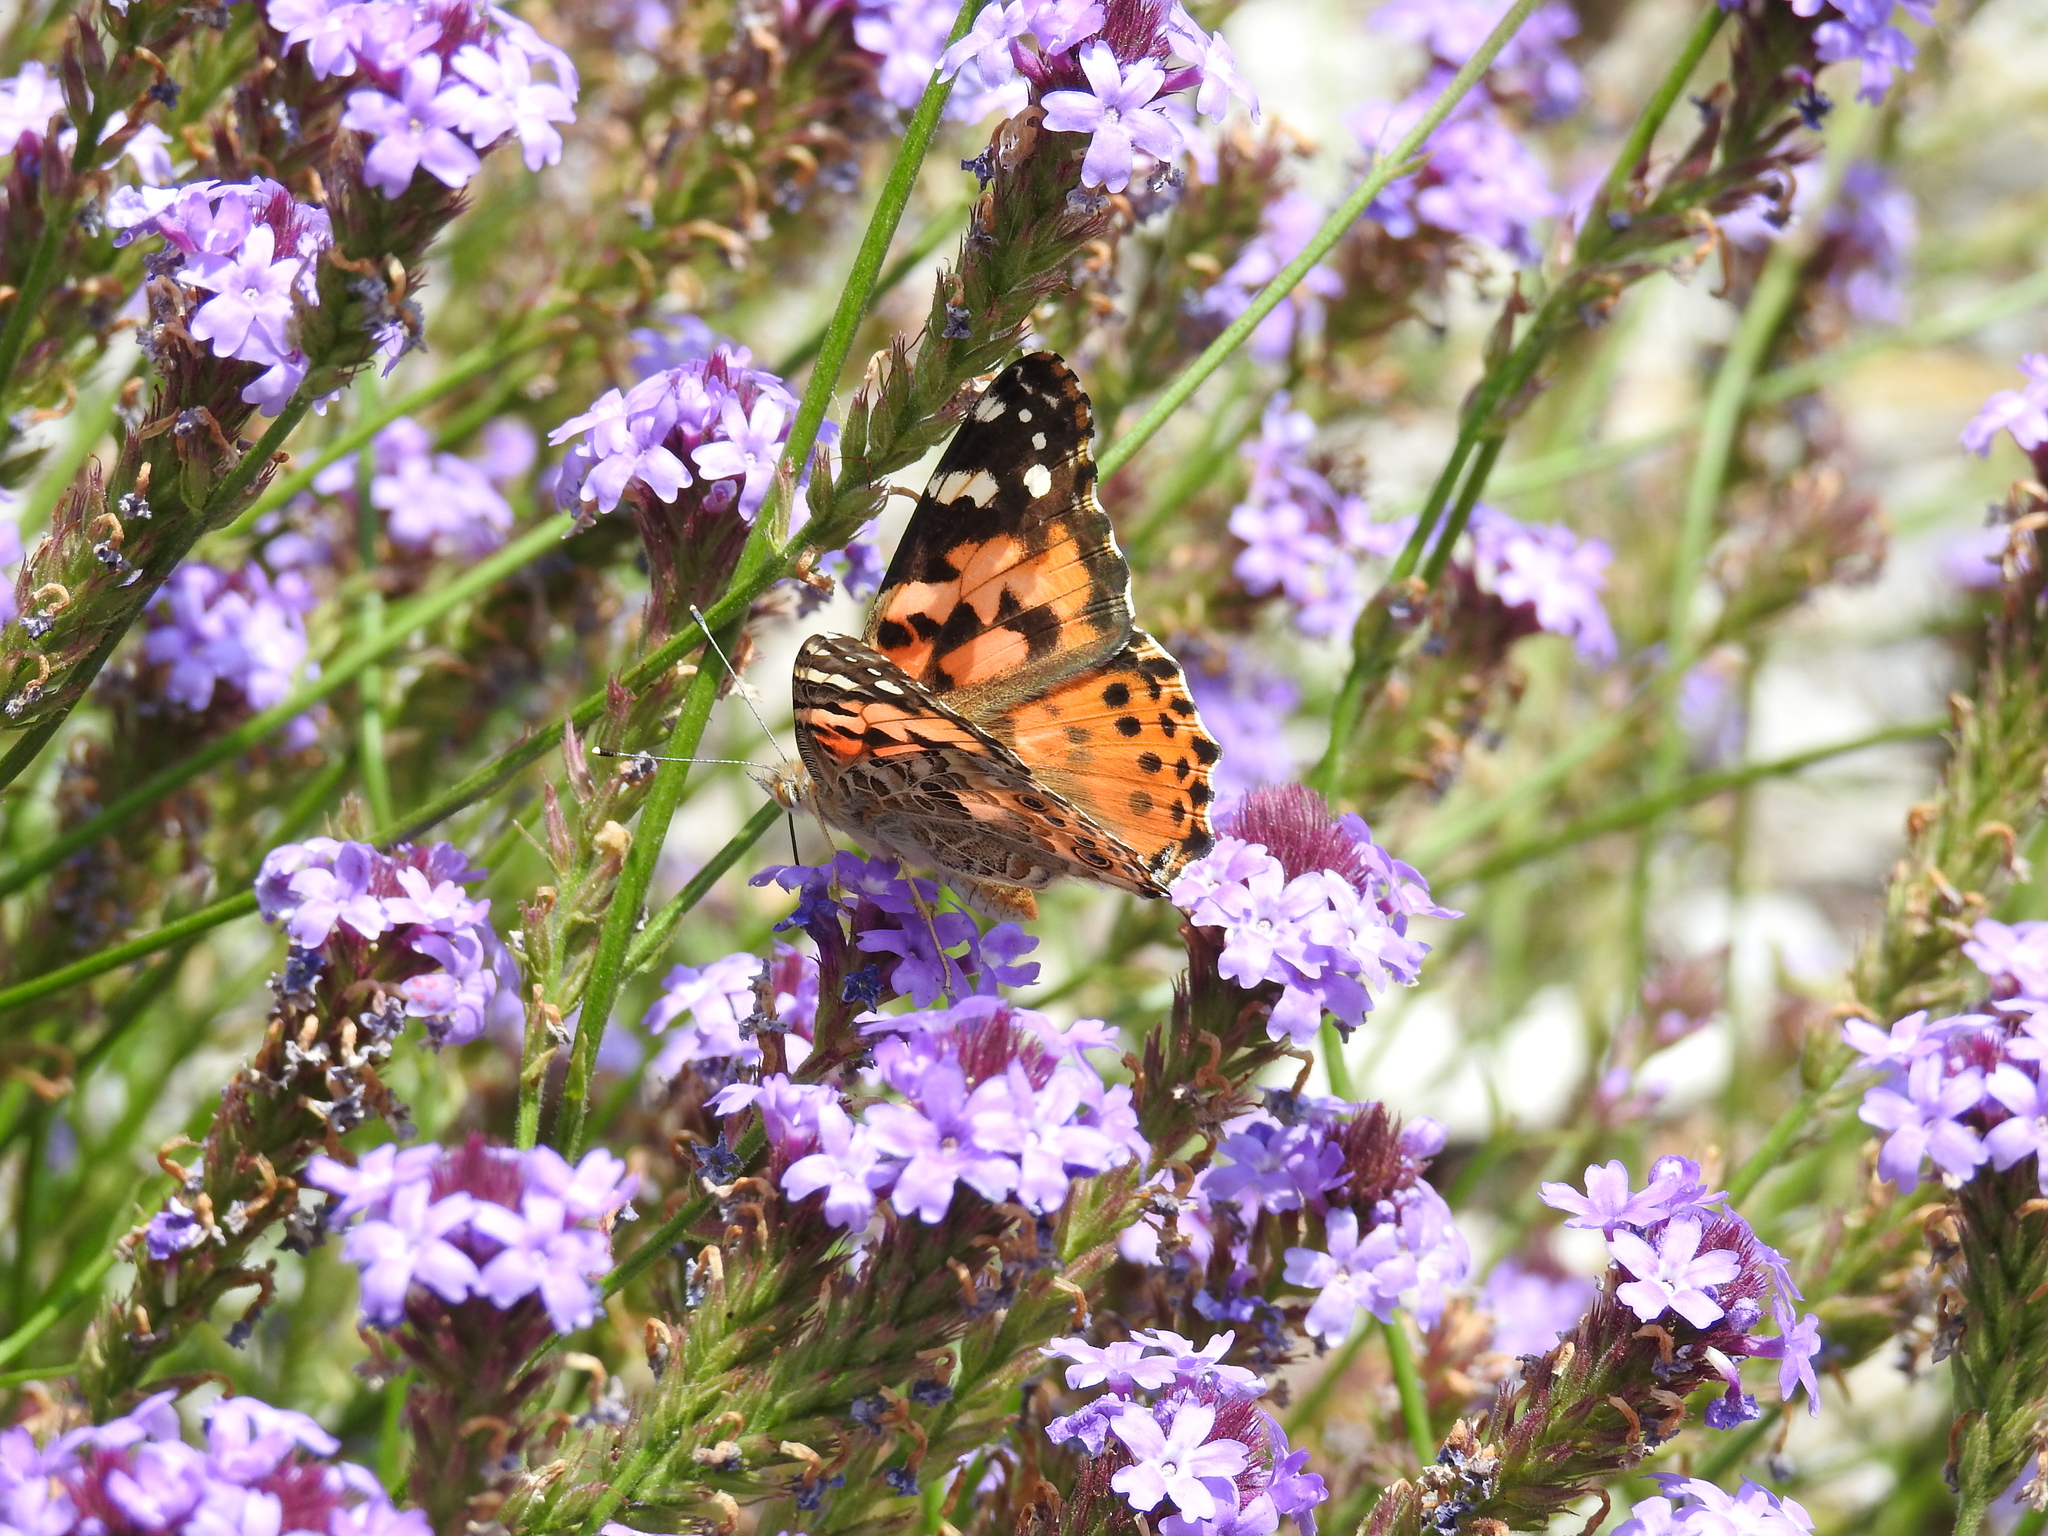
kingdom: Animalia
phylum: Arthropoda
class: Insecta
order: Lepidoptera
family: Nymphalidae
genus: Vanessa
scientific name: Vanessa cardui
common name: Painted lady
